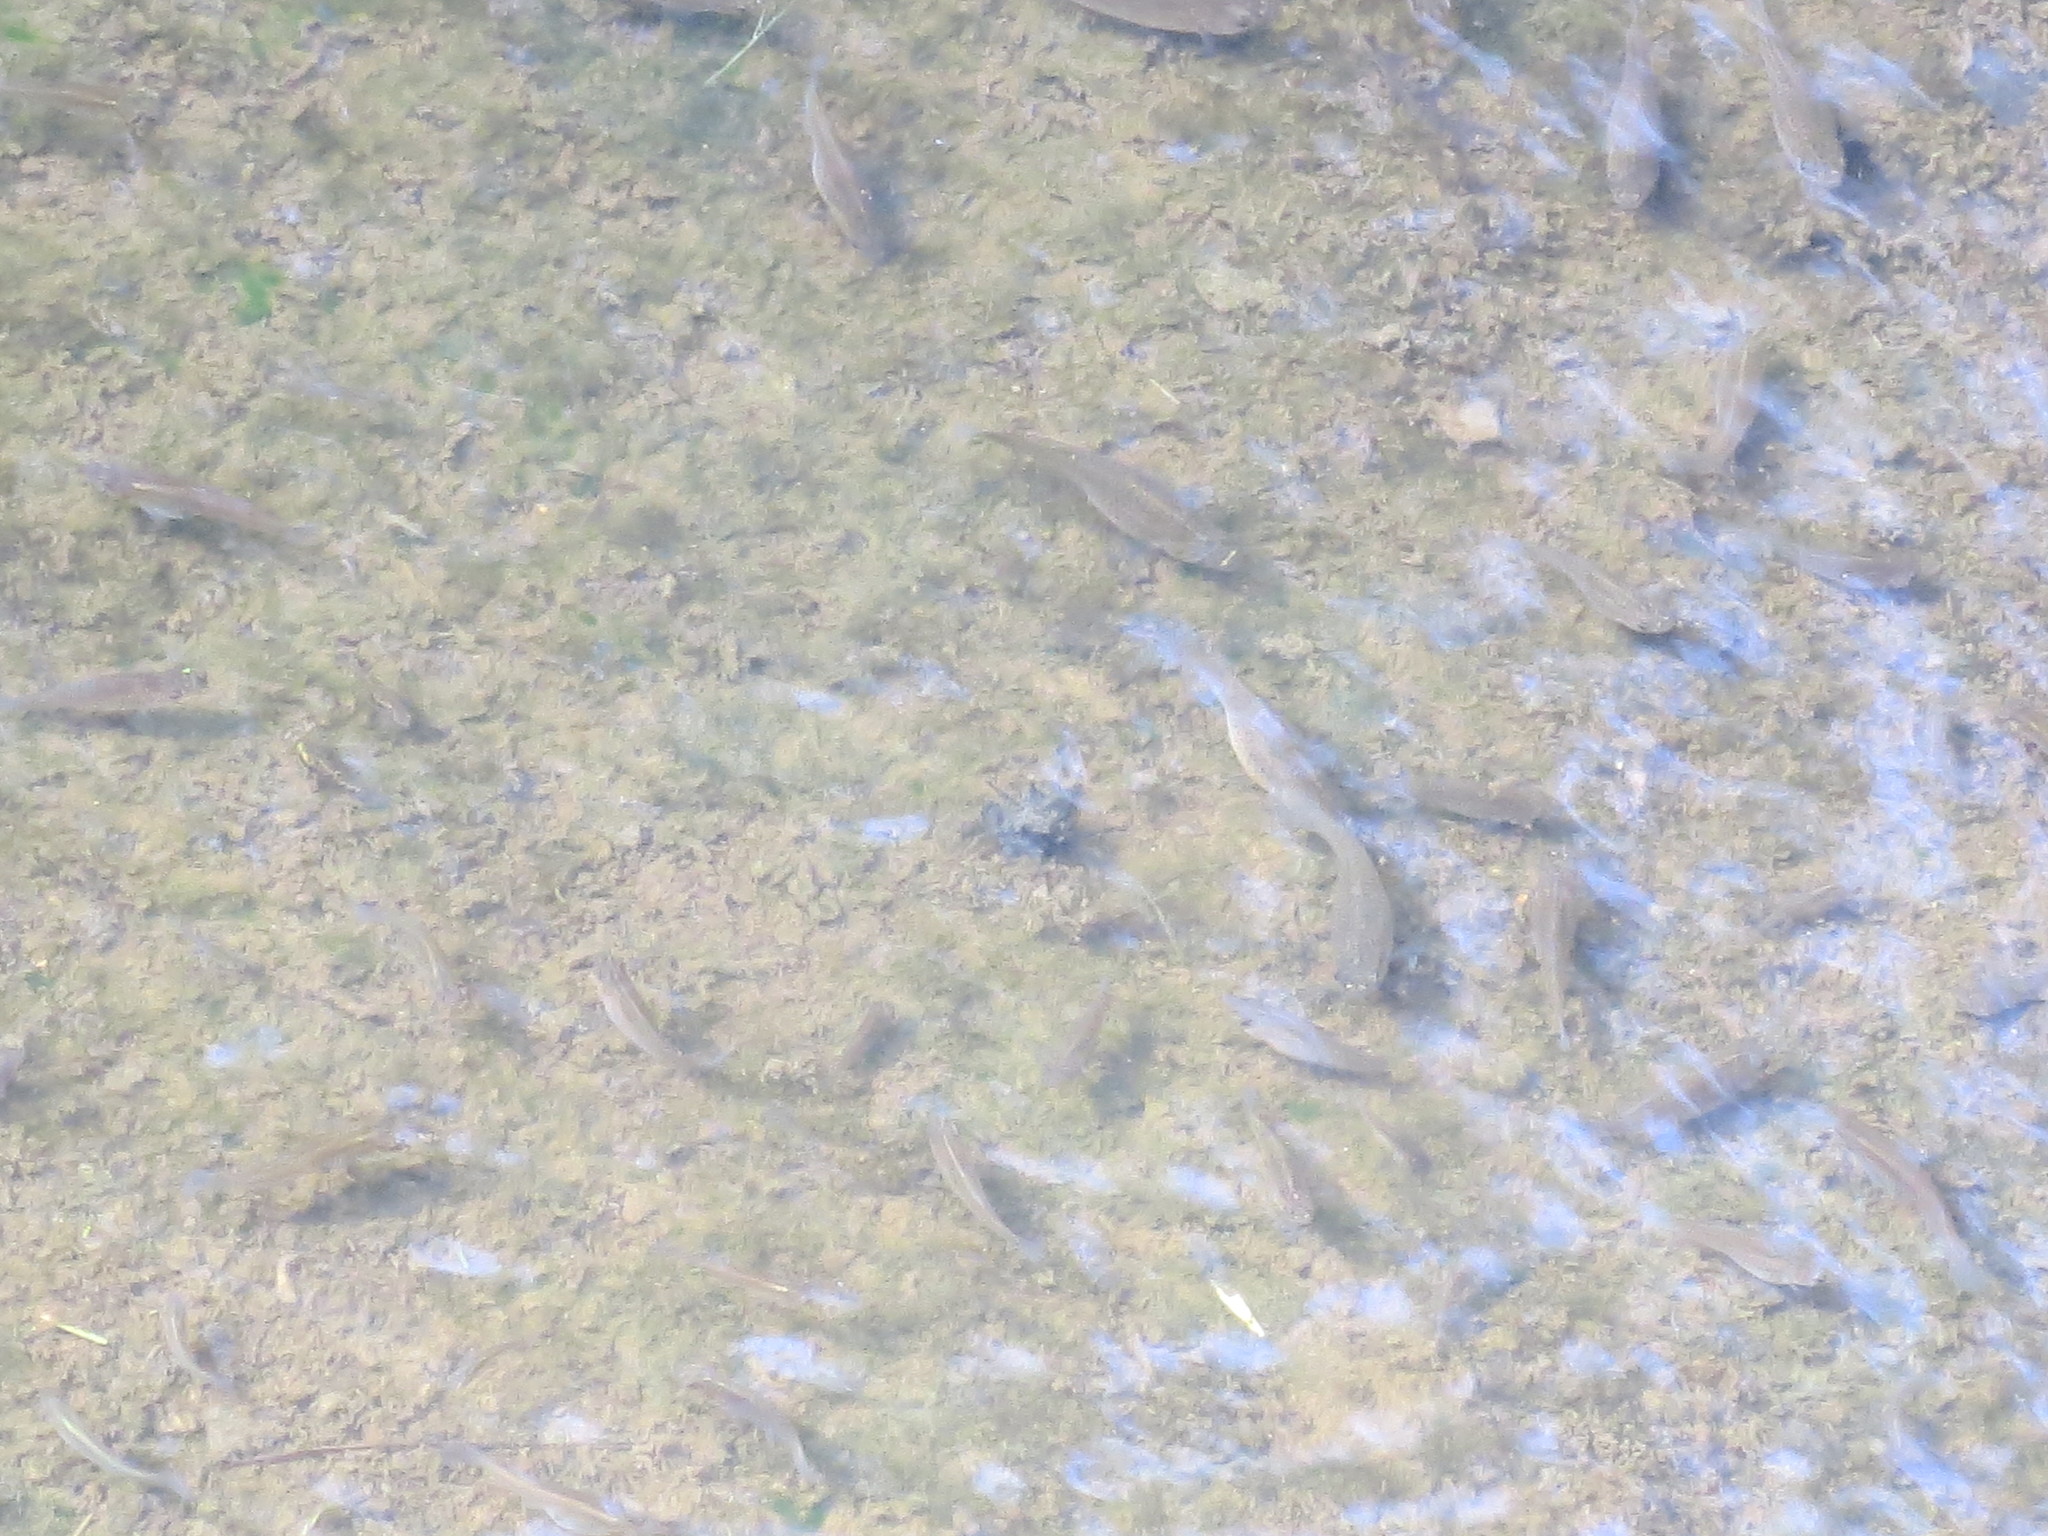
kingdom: Animalia
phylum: Chordata
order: Cyprinodontiformes
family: Poeciliidae
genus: Poecilia
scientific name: Poecilia latipinna
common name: Sailfin molly
